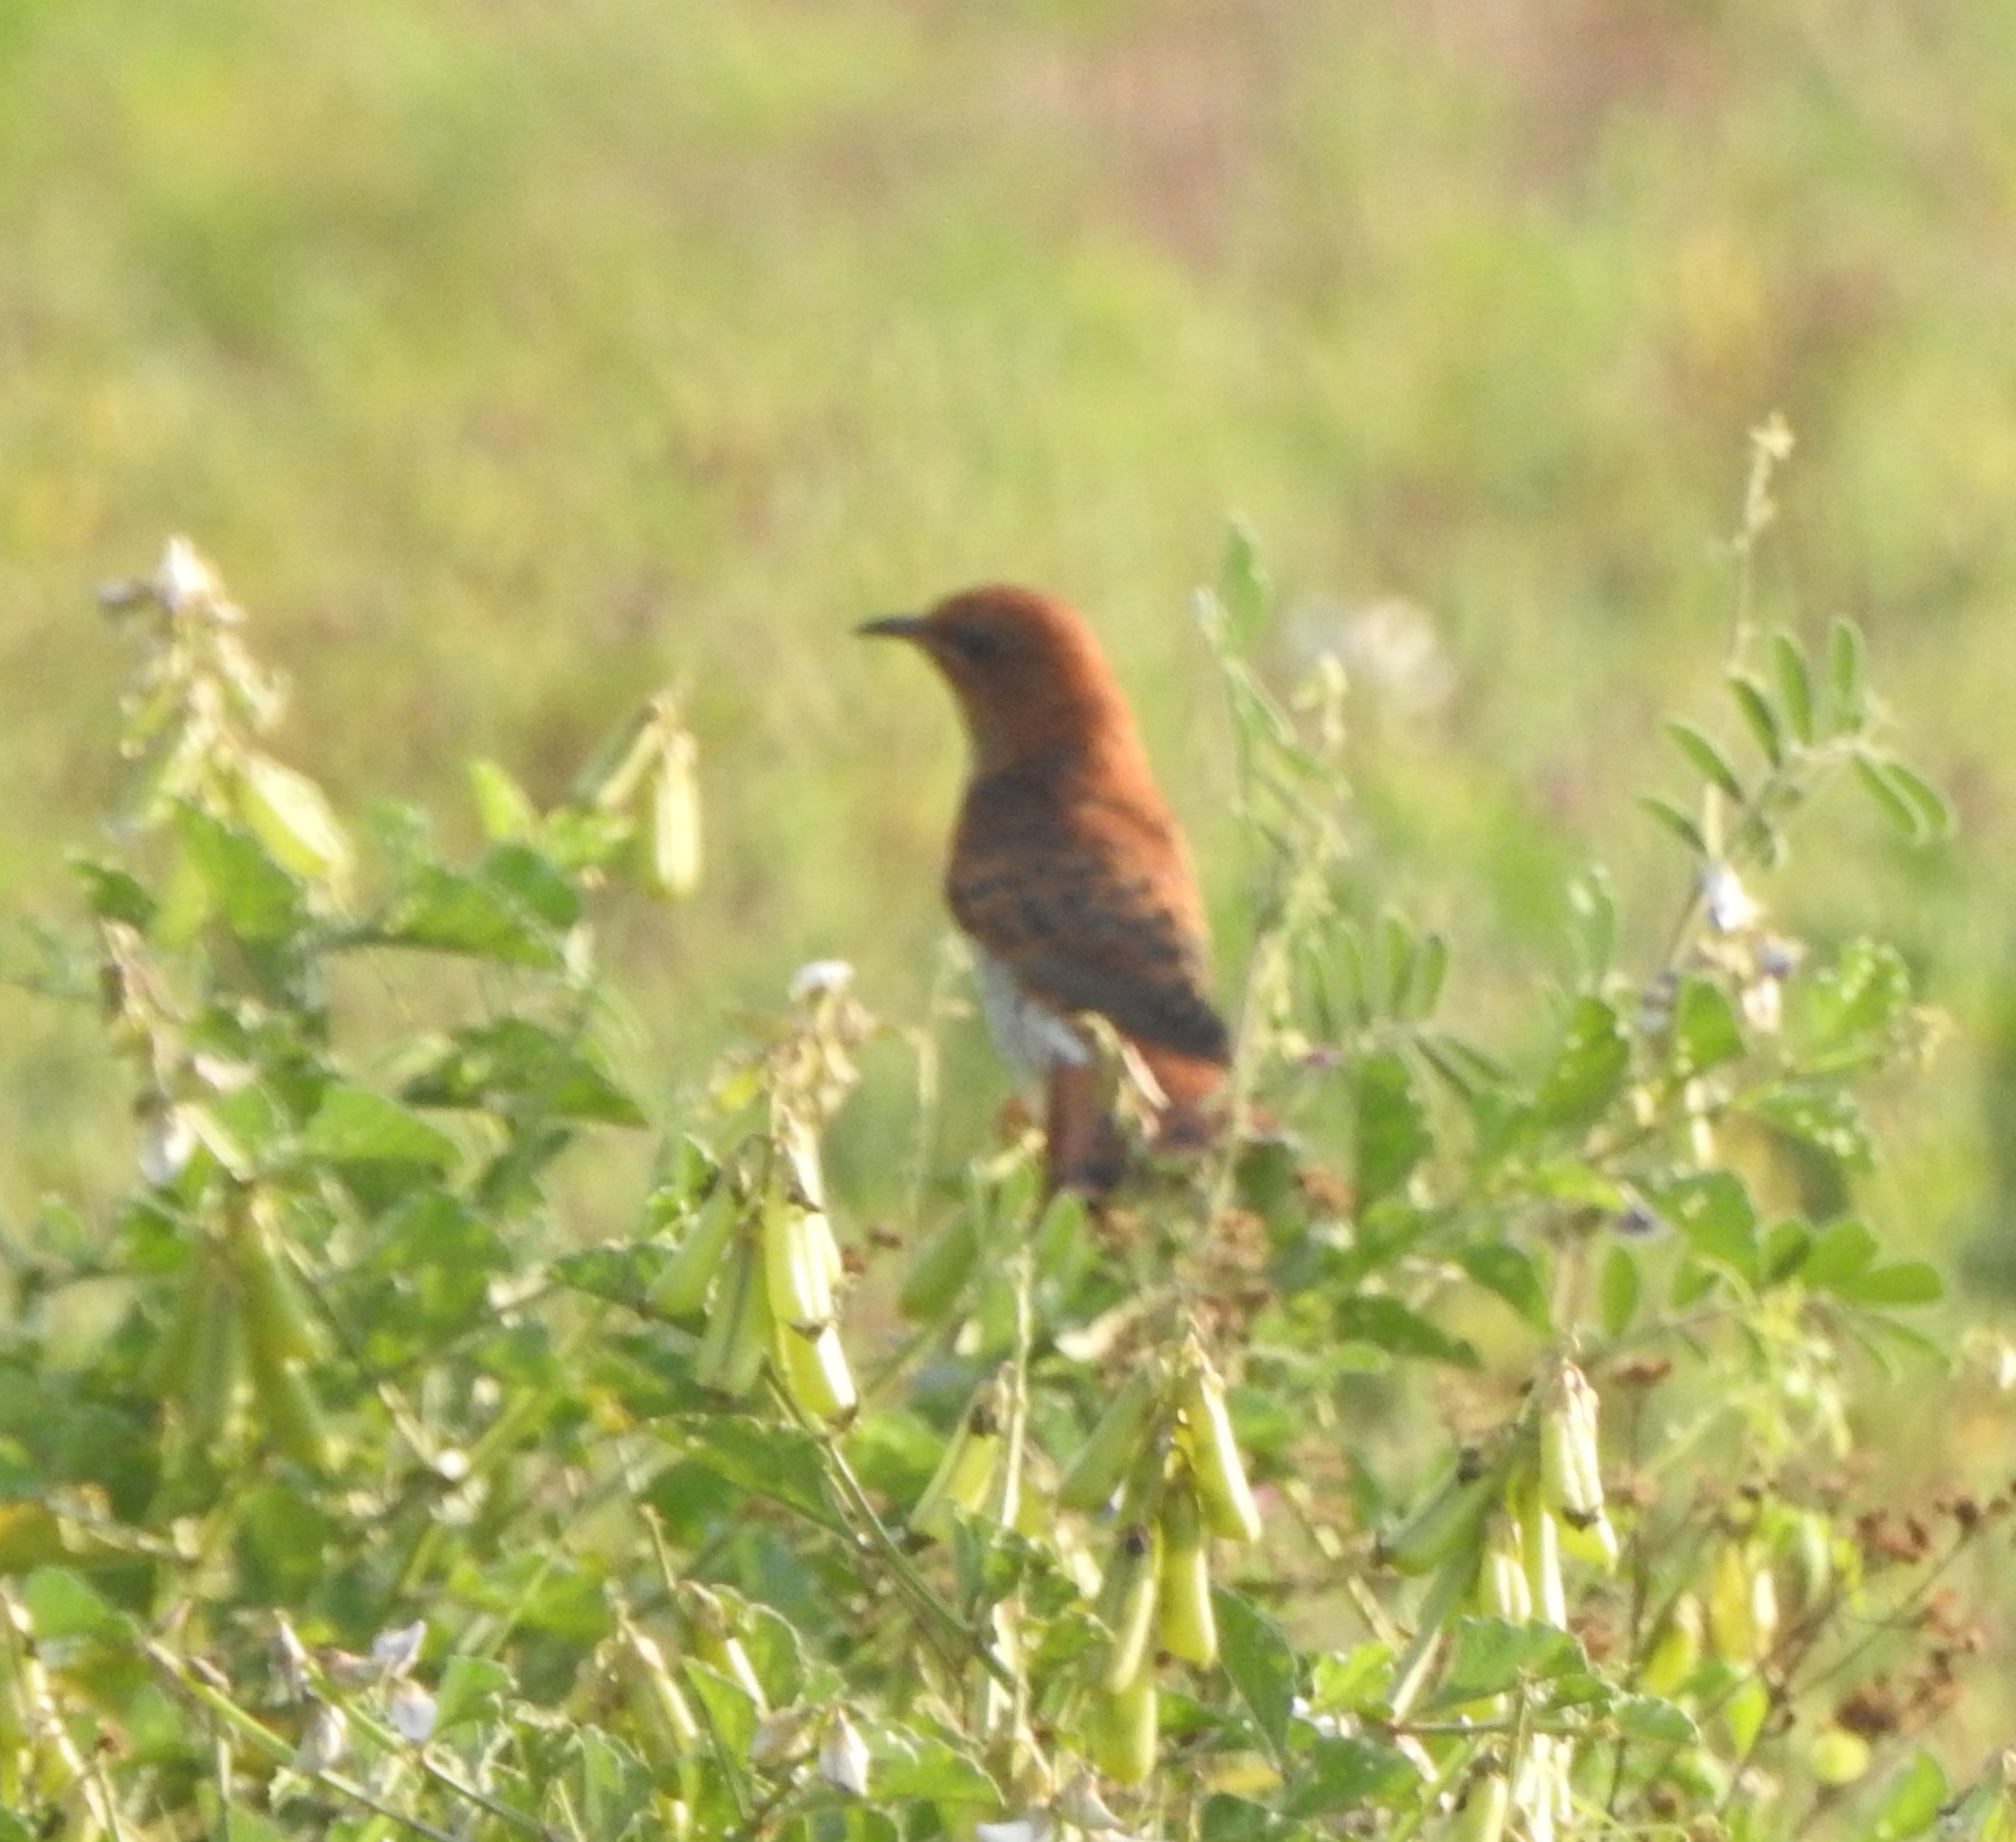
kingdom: Animalia
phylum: Chordata
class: Aves
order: Cuculiformes
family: Cuculidae
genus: Cacomantis
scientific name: Cacomantis passerinus
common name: Grey-bellied cuckoo
